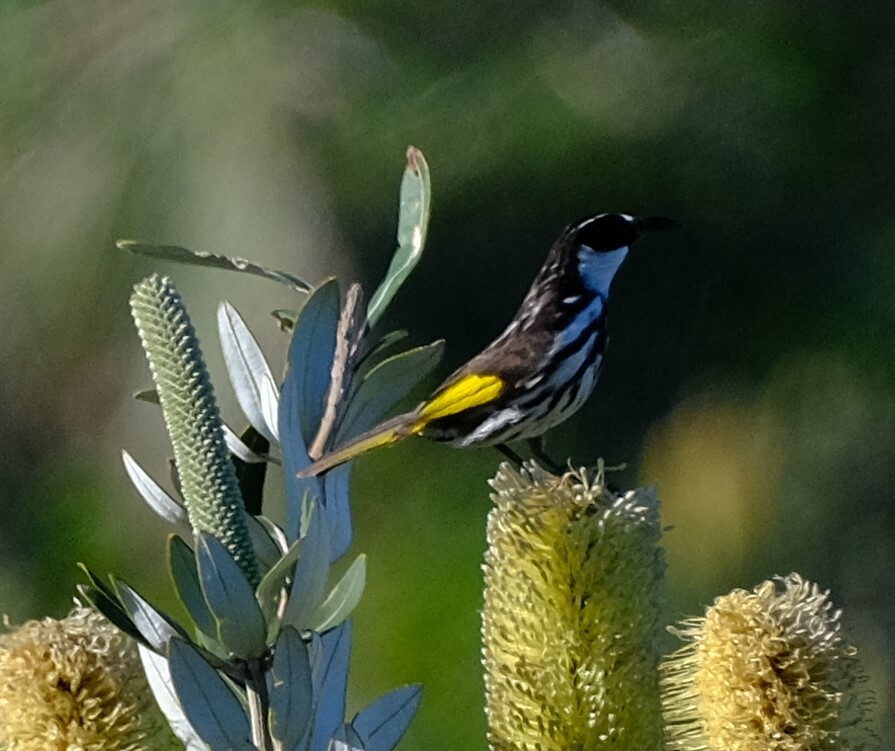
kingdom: Animalia
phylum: Chordata
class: Aves
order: Passeriformes
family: Meliphagidae
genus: Phylidonyris
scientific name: Phylidonyris niger
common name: White-cheeked honeyeater
